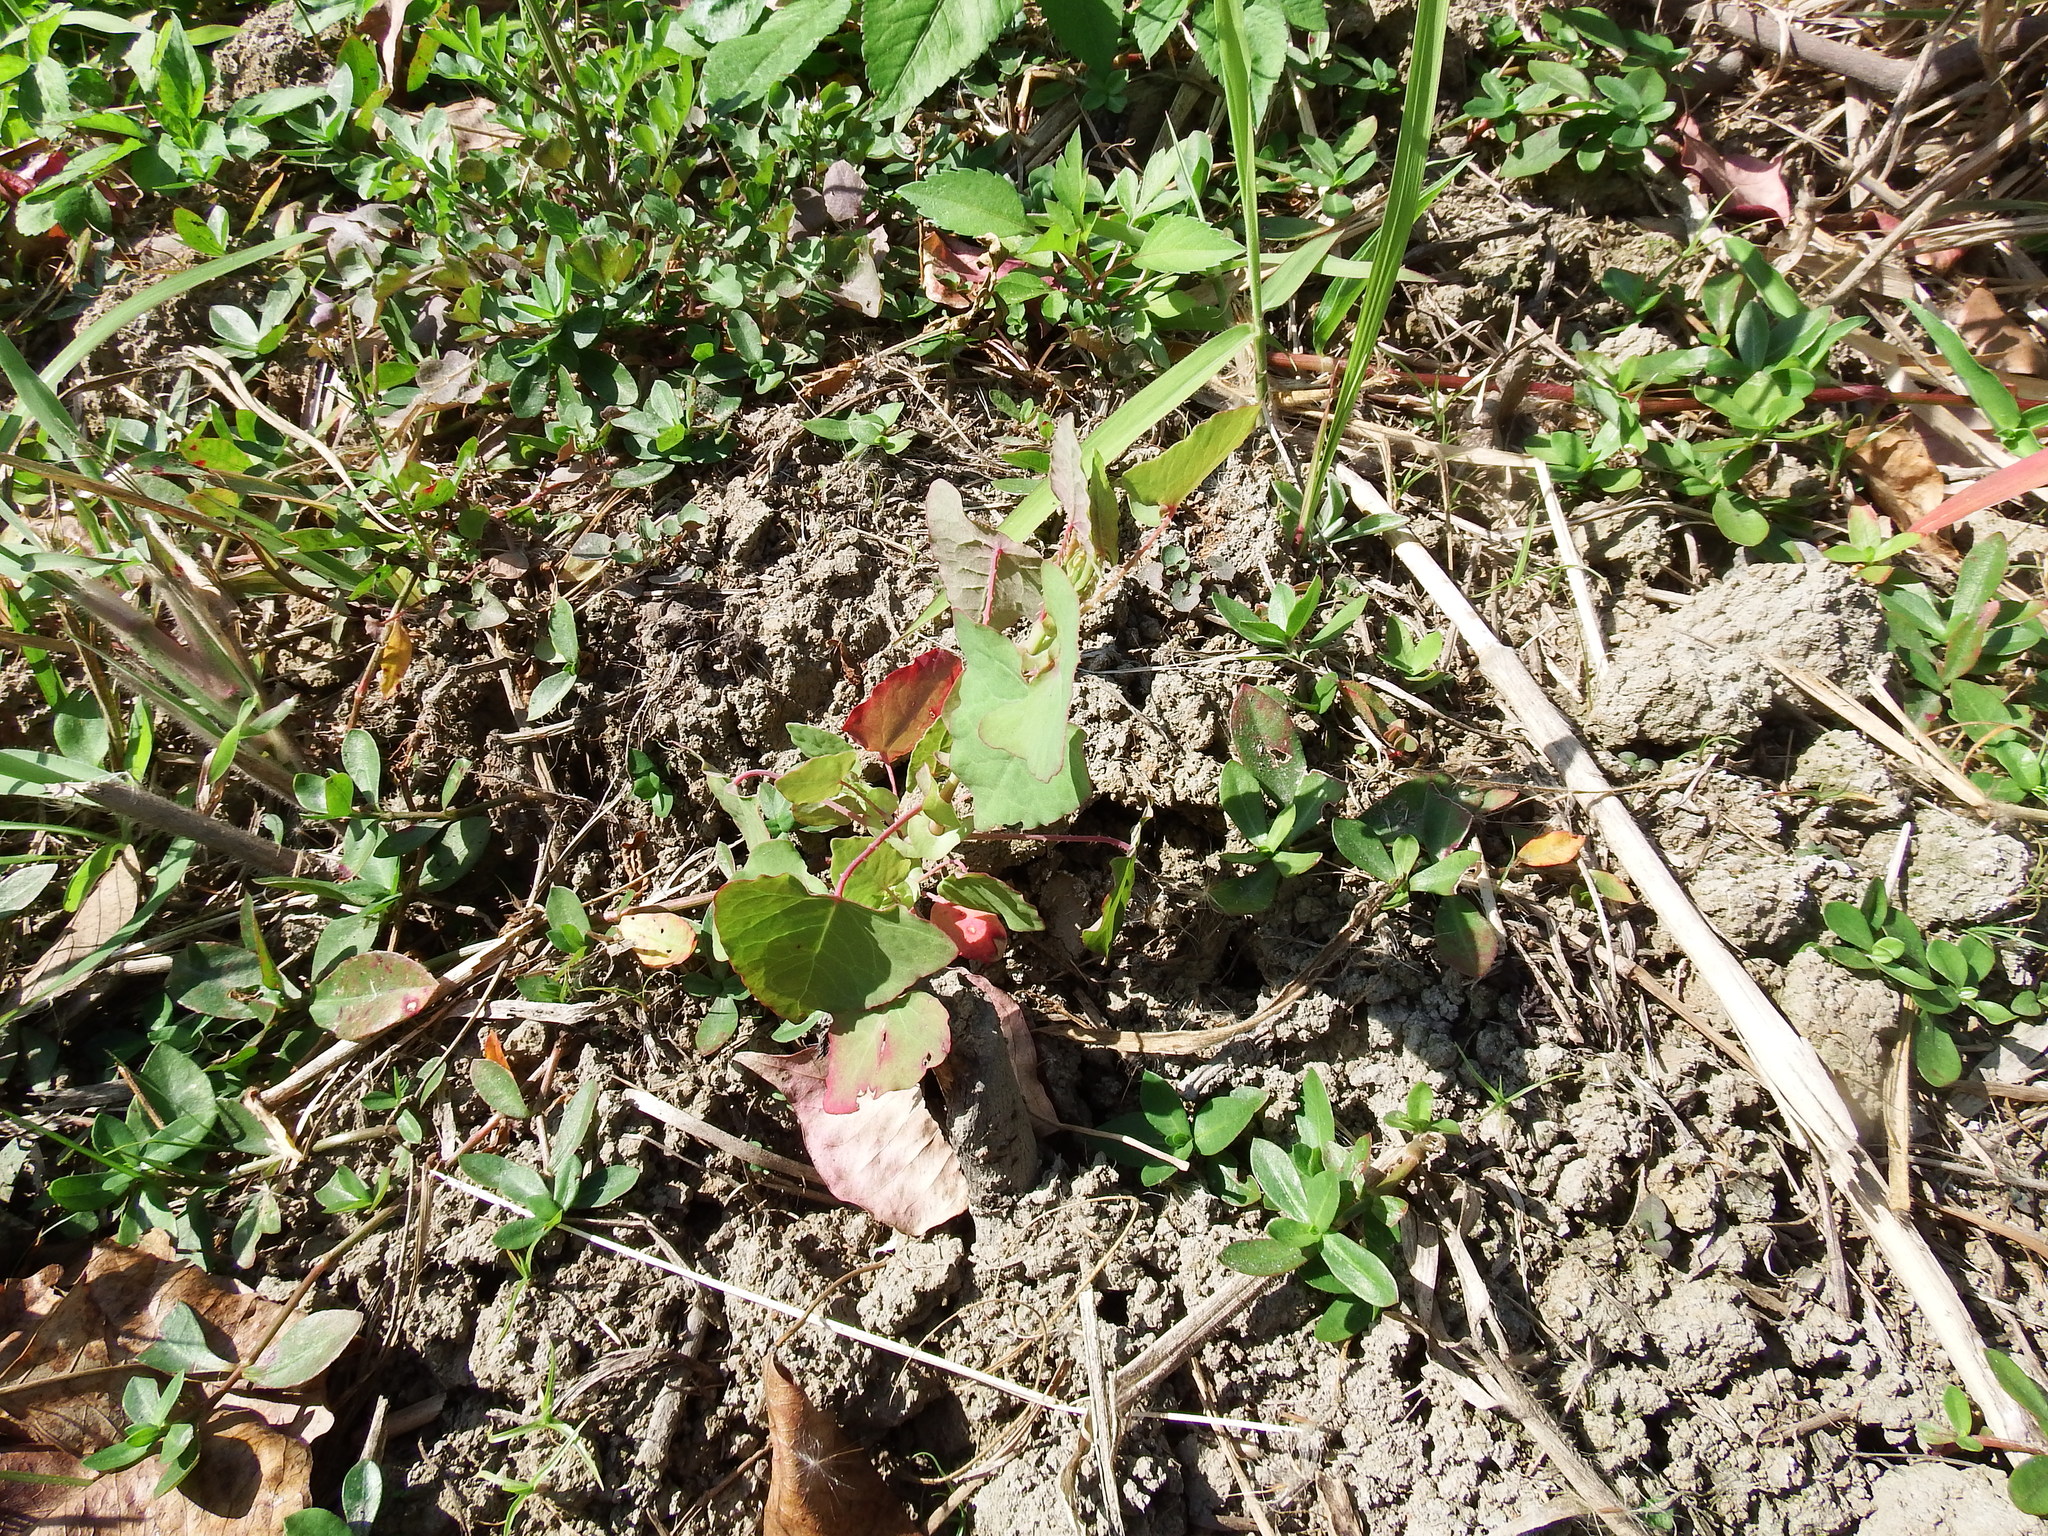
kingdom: Plantae
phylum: Tracheophyta
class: Magnoliopsida
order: Caryophyllales
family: Polygonaceae
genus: Persicaria
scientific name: Persicaria perfoliata
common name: Asiatic tearthumb
